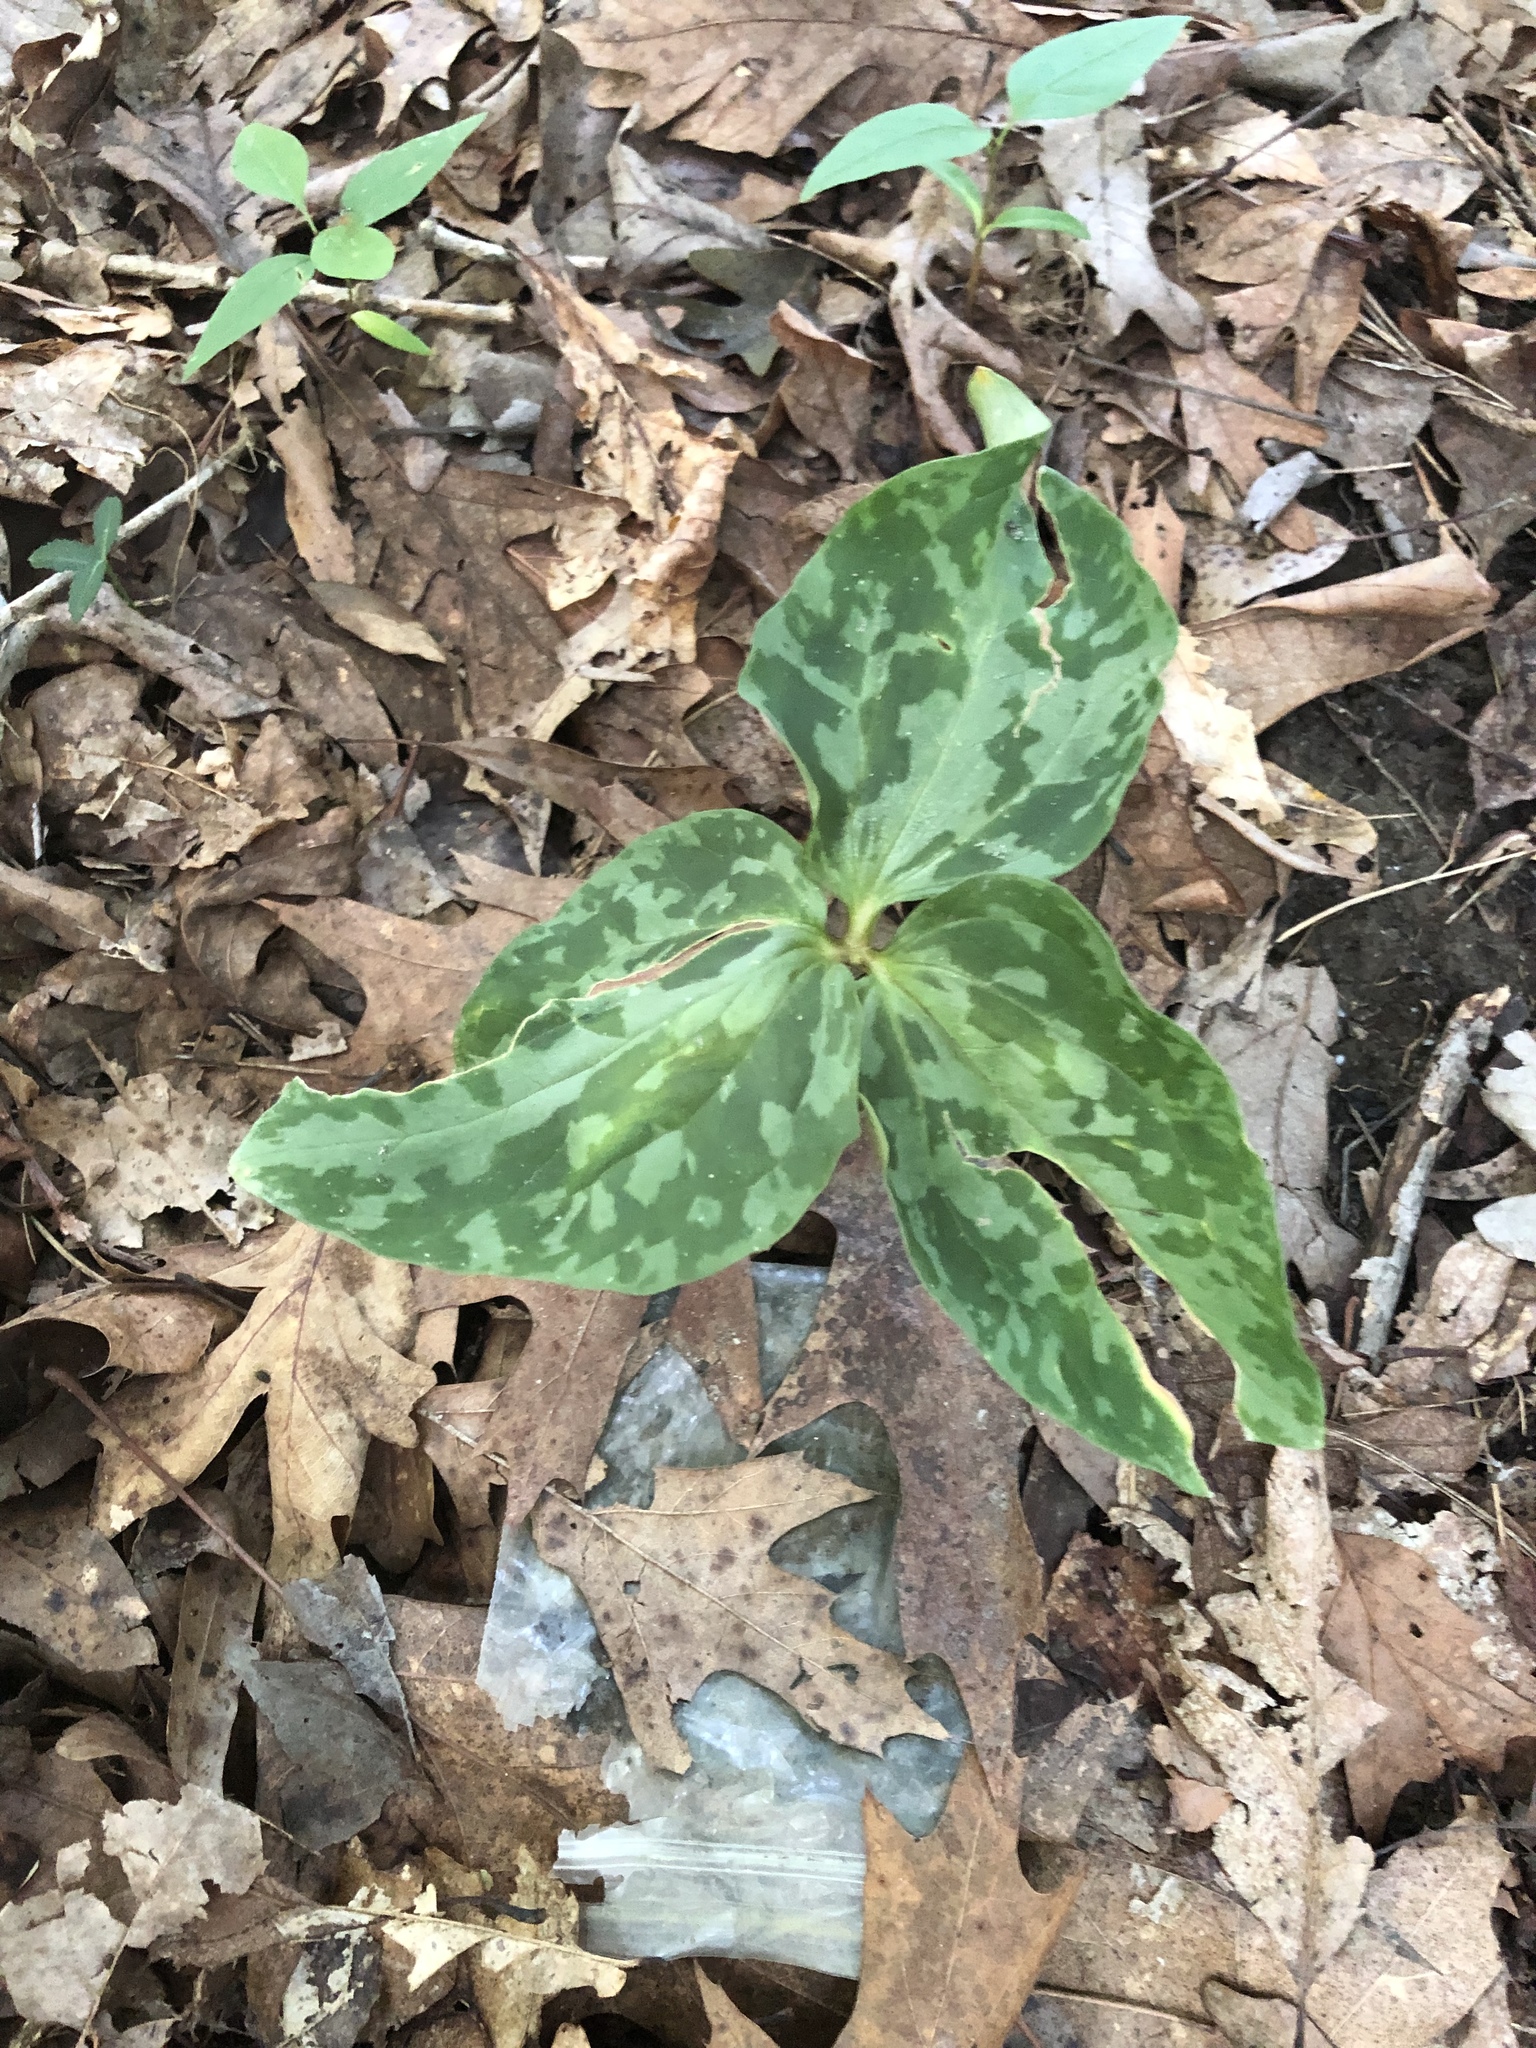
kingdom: Plantae
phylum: Tracheophyta
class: Liliopsida
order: Liliales
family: Melanthiaceae
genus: Trillium
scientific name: Trillium cuneatum
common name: Cuneate trillium
